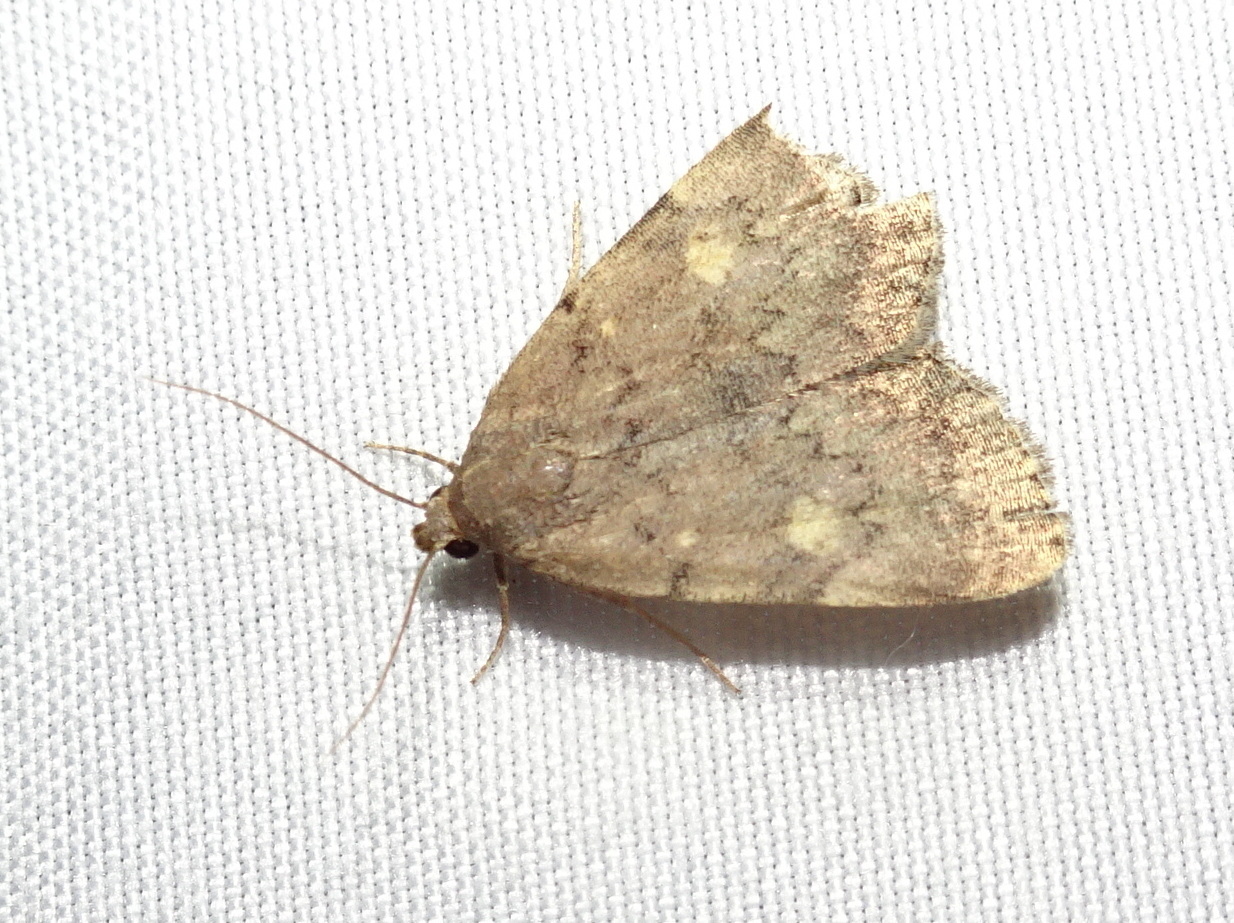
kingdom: Animalia
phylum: Arthropoda
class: Insecta
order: Lepidoptera
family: Erebidae
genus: Idia
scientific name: Idia aemula
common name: Common idia moth
